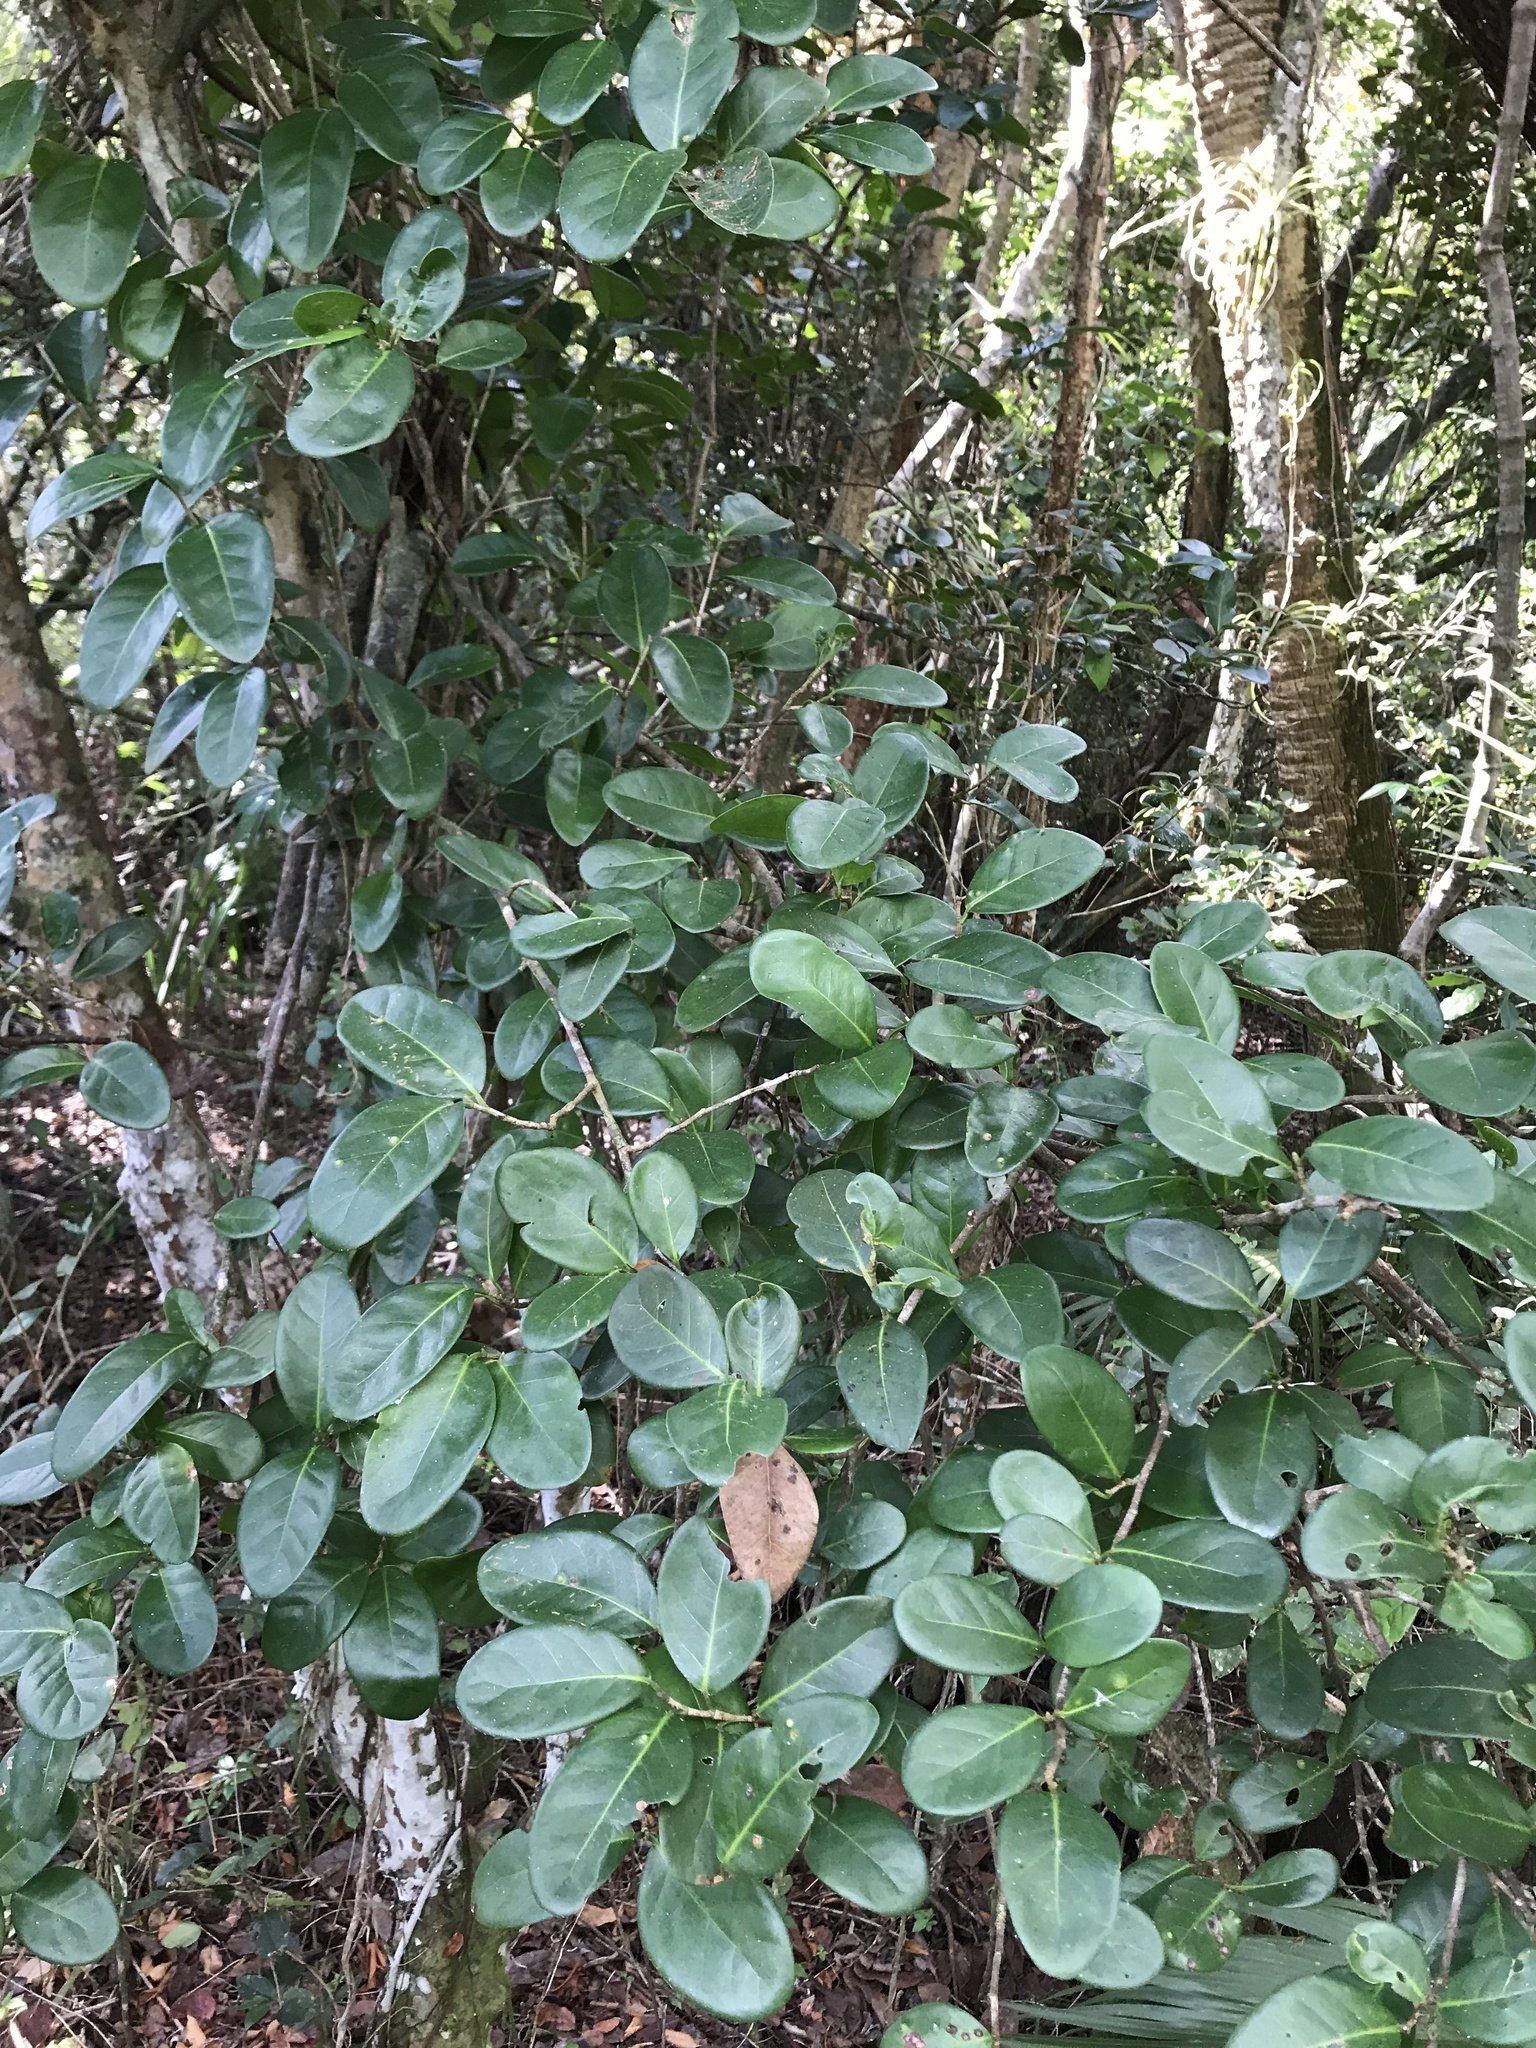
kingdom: Plantae
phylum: Tracheophyta
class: Magnoliopsida
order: Malpighiales
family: Chrysobalanaceae
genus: Chrysobalanus
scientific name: Chrysobalanus icaco
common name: Coco plum
